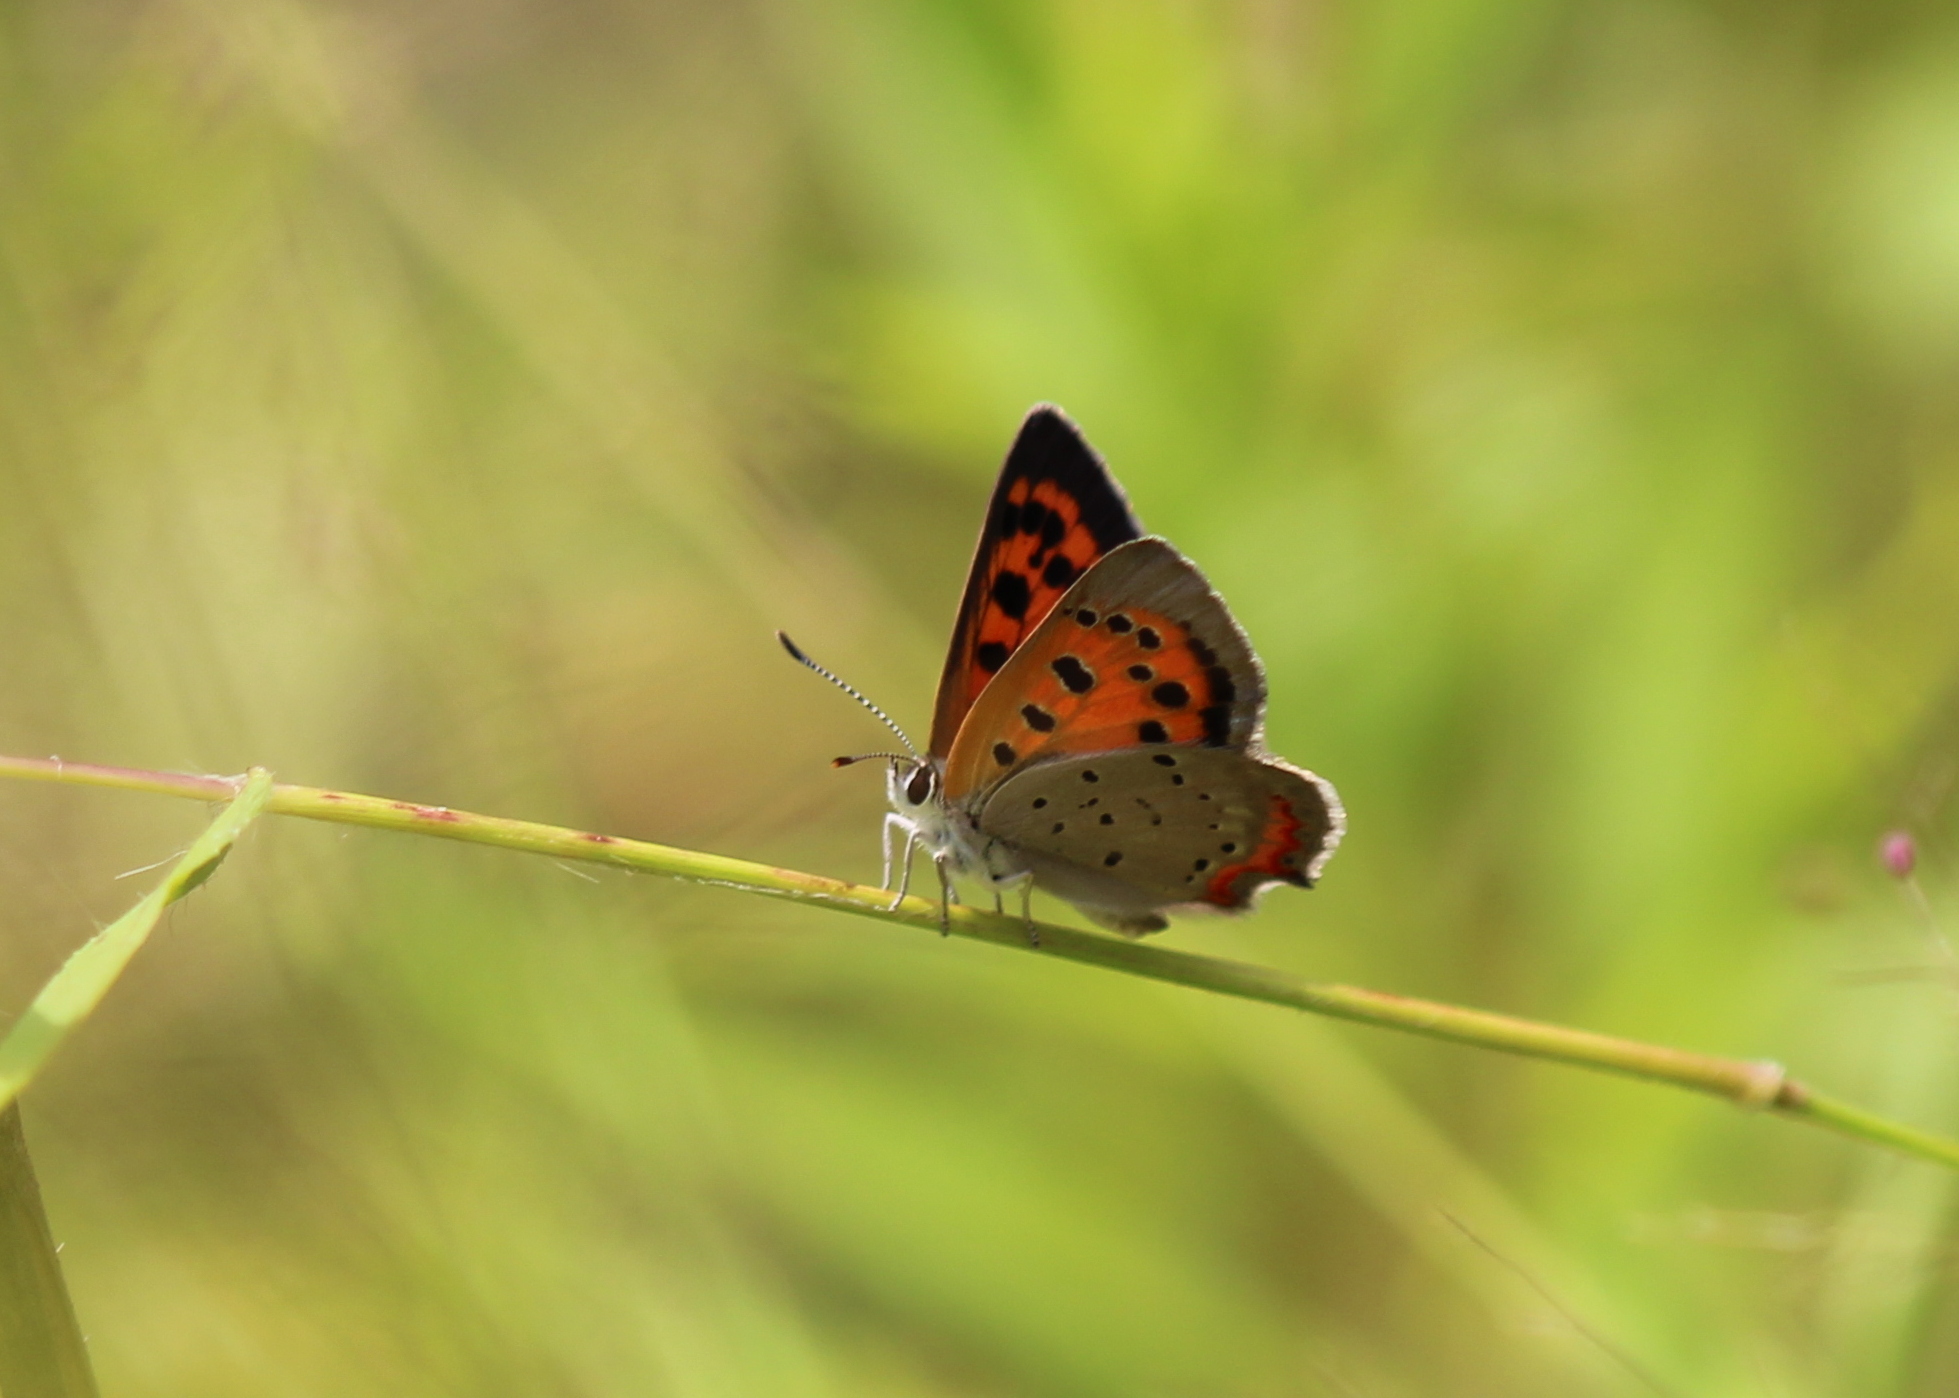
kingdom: Animalia
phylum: Arthropoda
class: Insecta
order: Lepidoptera
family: Lycaenidae
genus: Lycaena
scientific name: Lycaena hypophlaeas
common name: American copper
